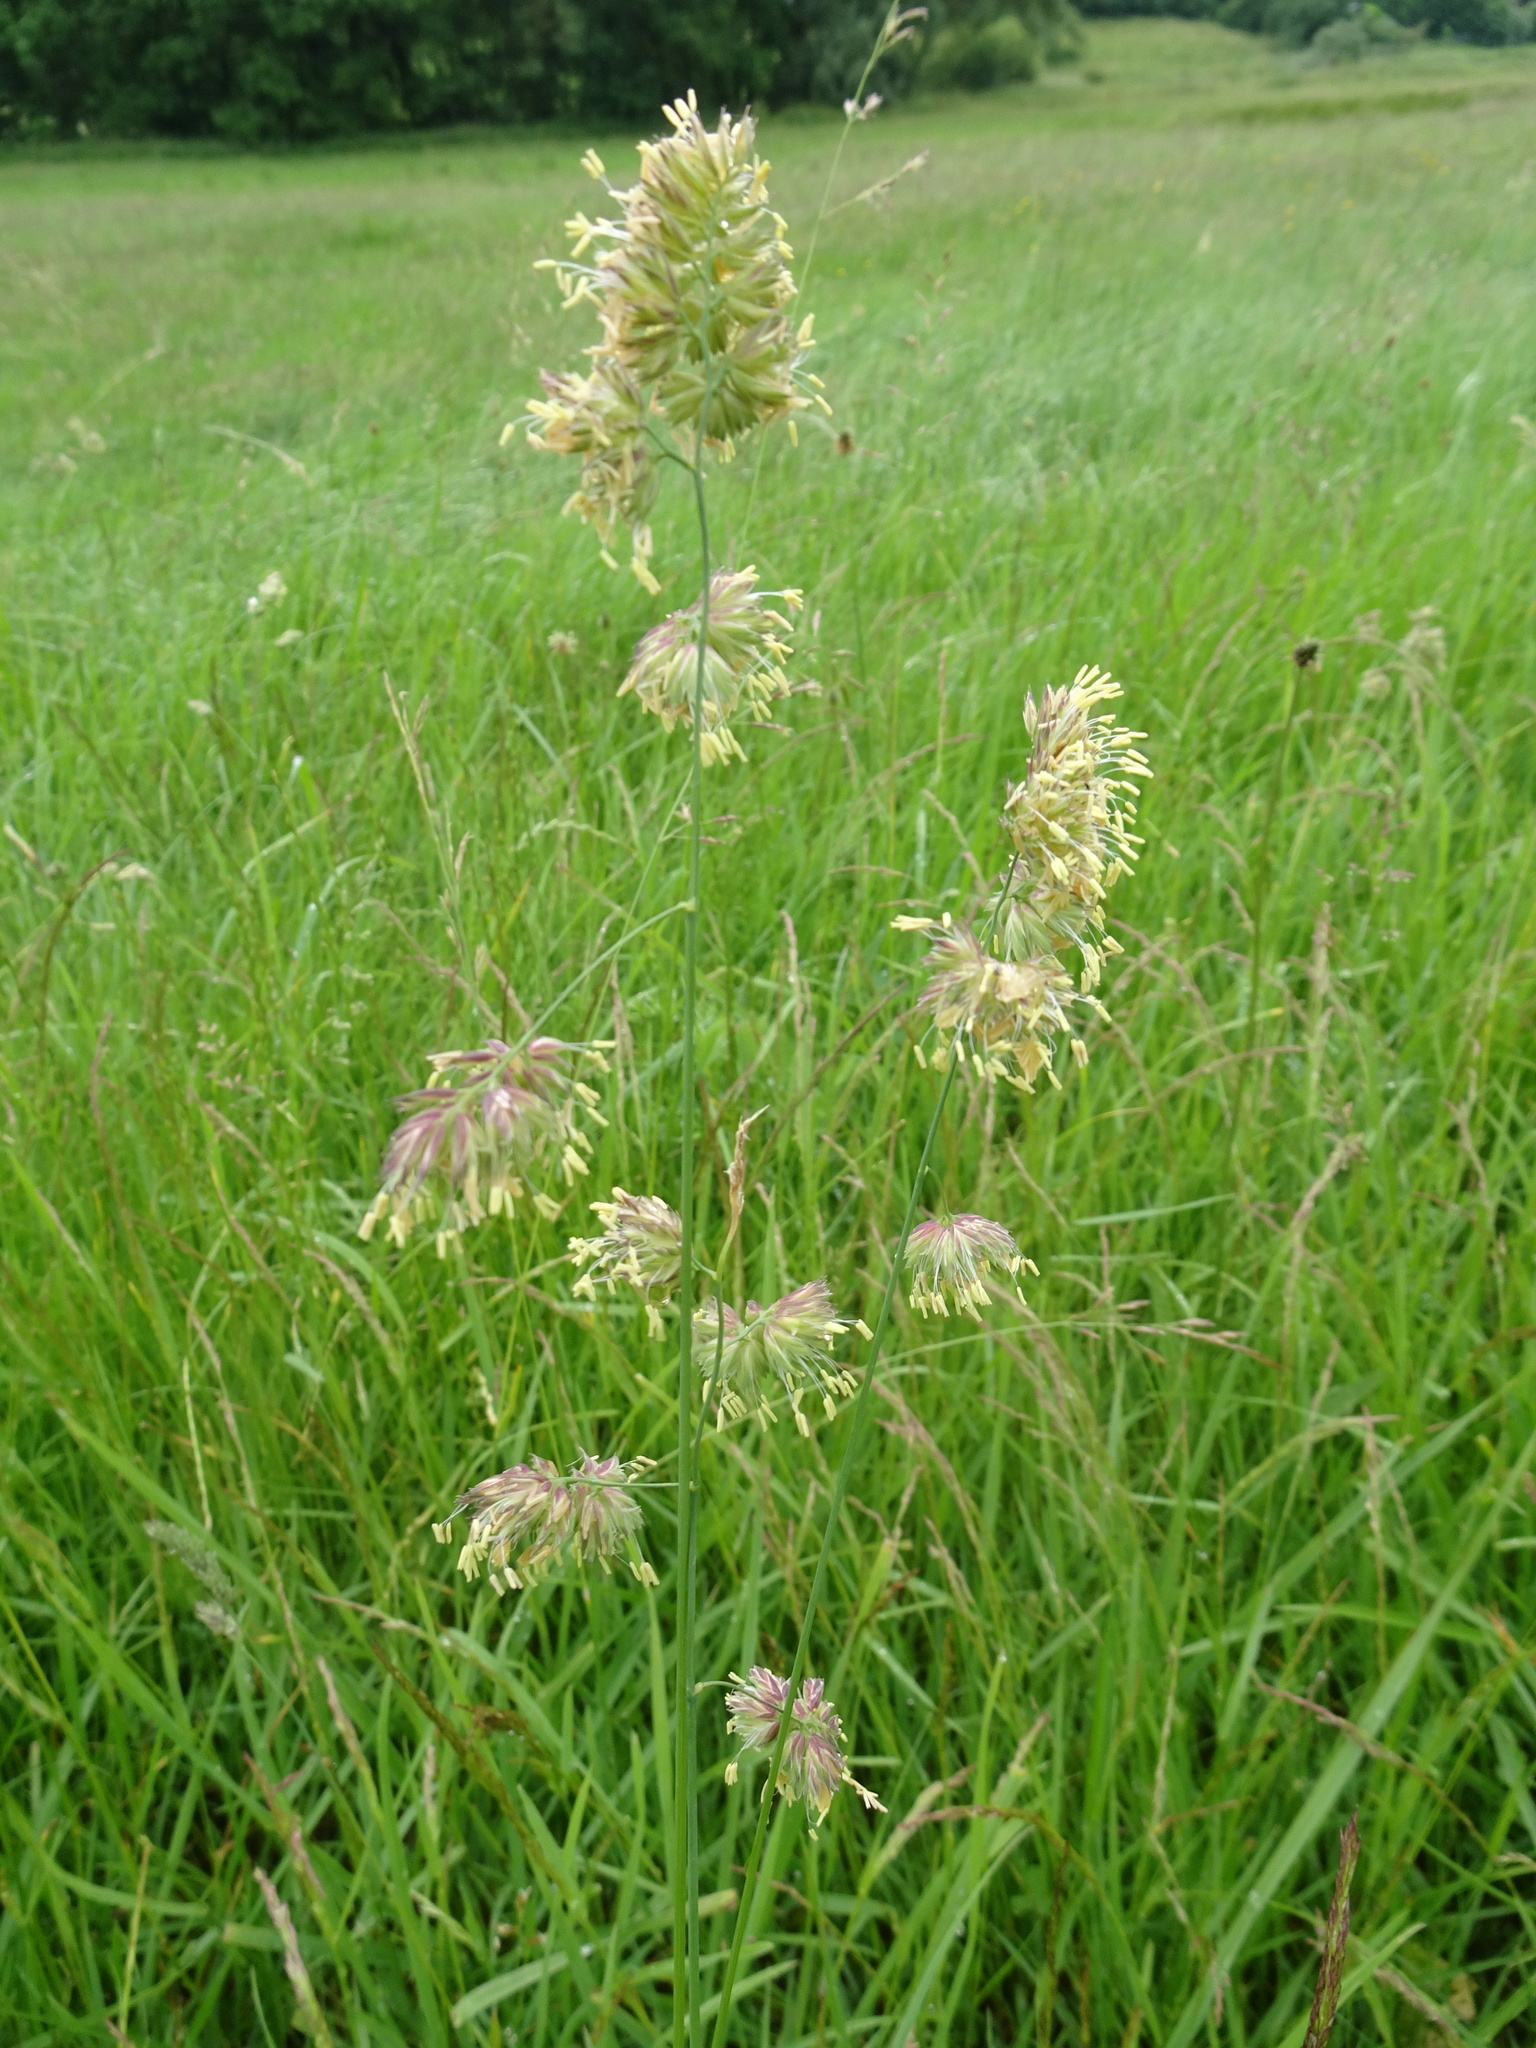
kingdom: Plantae
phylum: Tracheophyta
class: Liliopsida
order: Poales
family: Poaceae
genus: Dactylis
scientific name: Dactylis glomerata
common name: Orchardgrass
